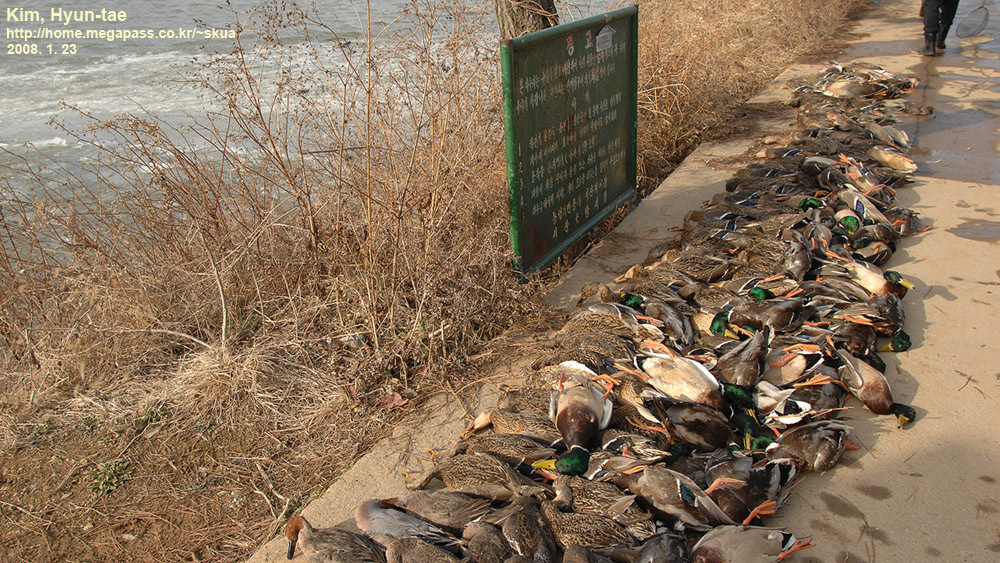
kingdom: Animalia
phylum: Chordata
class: Aves
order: Anseriformes
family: Anatidae
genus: Anas
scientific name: Anas platyrhynchos
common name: Mallard
